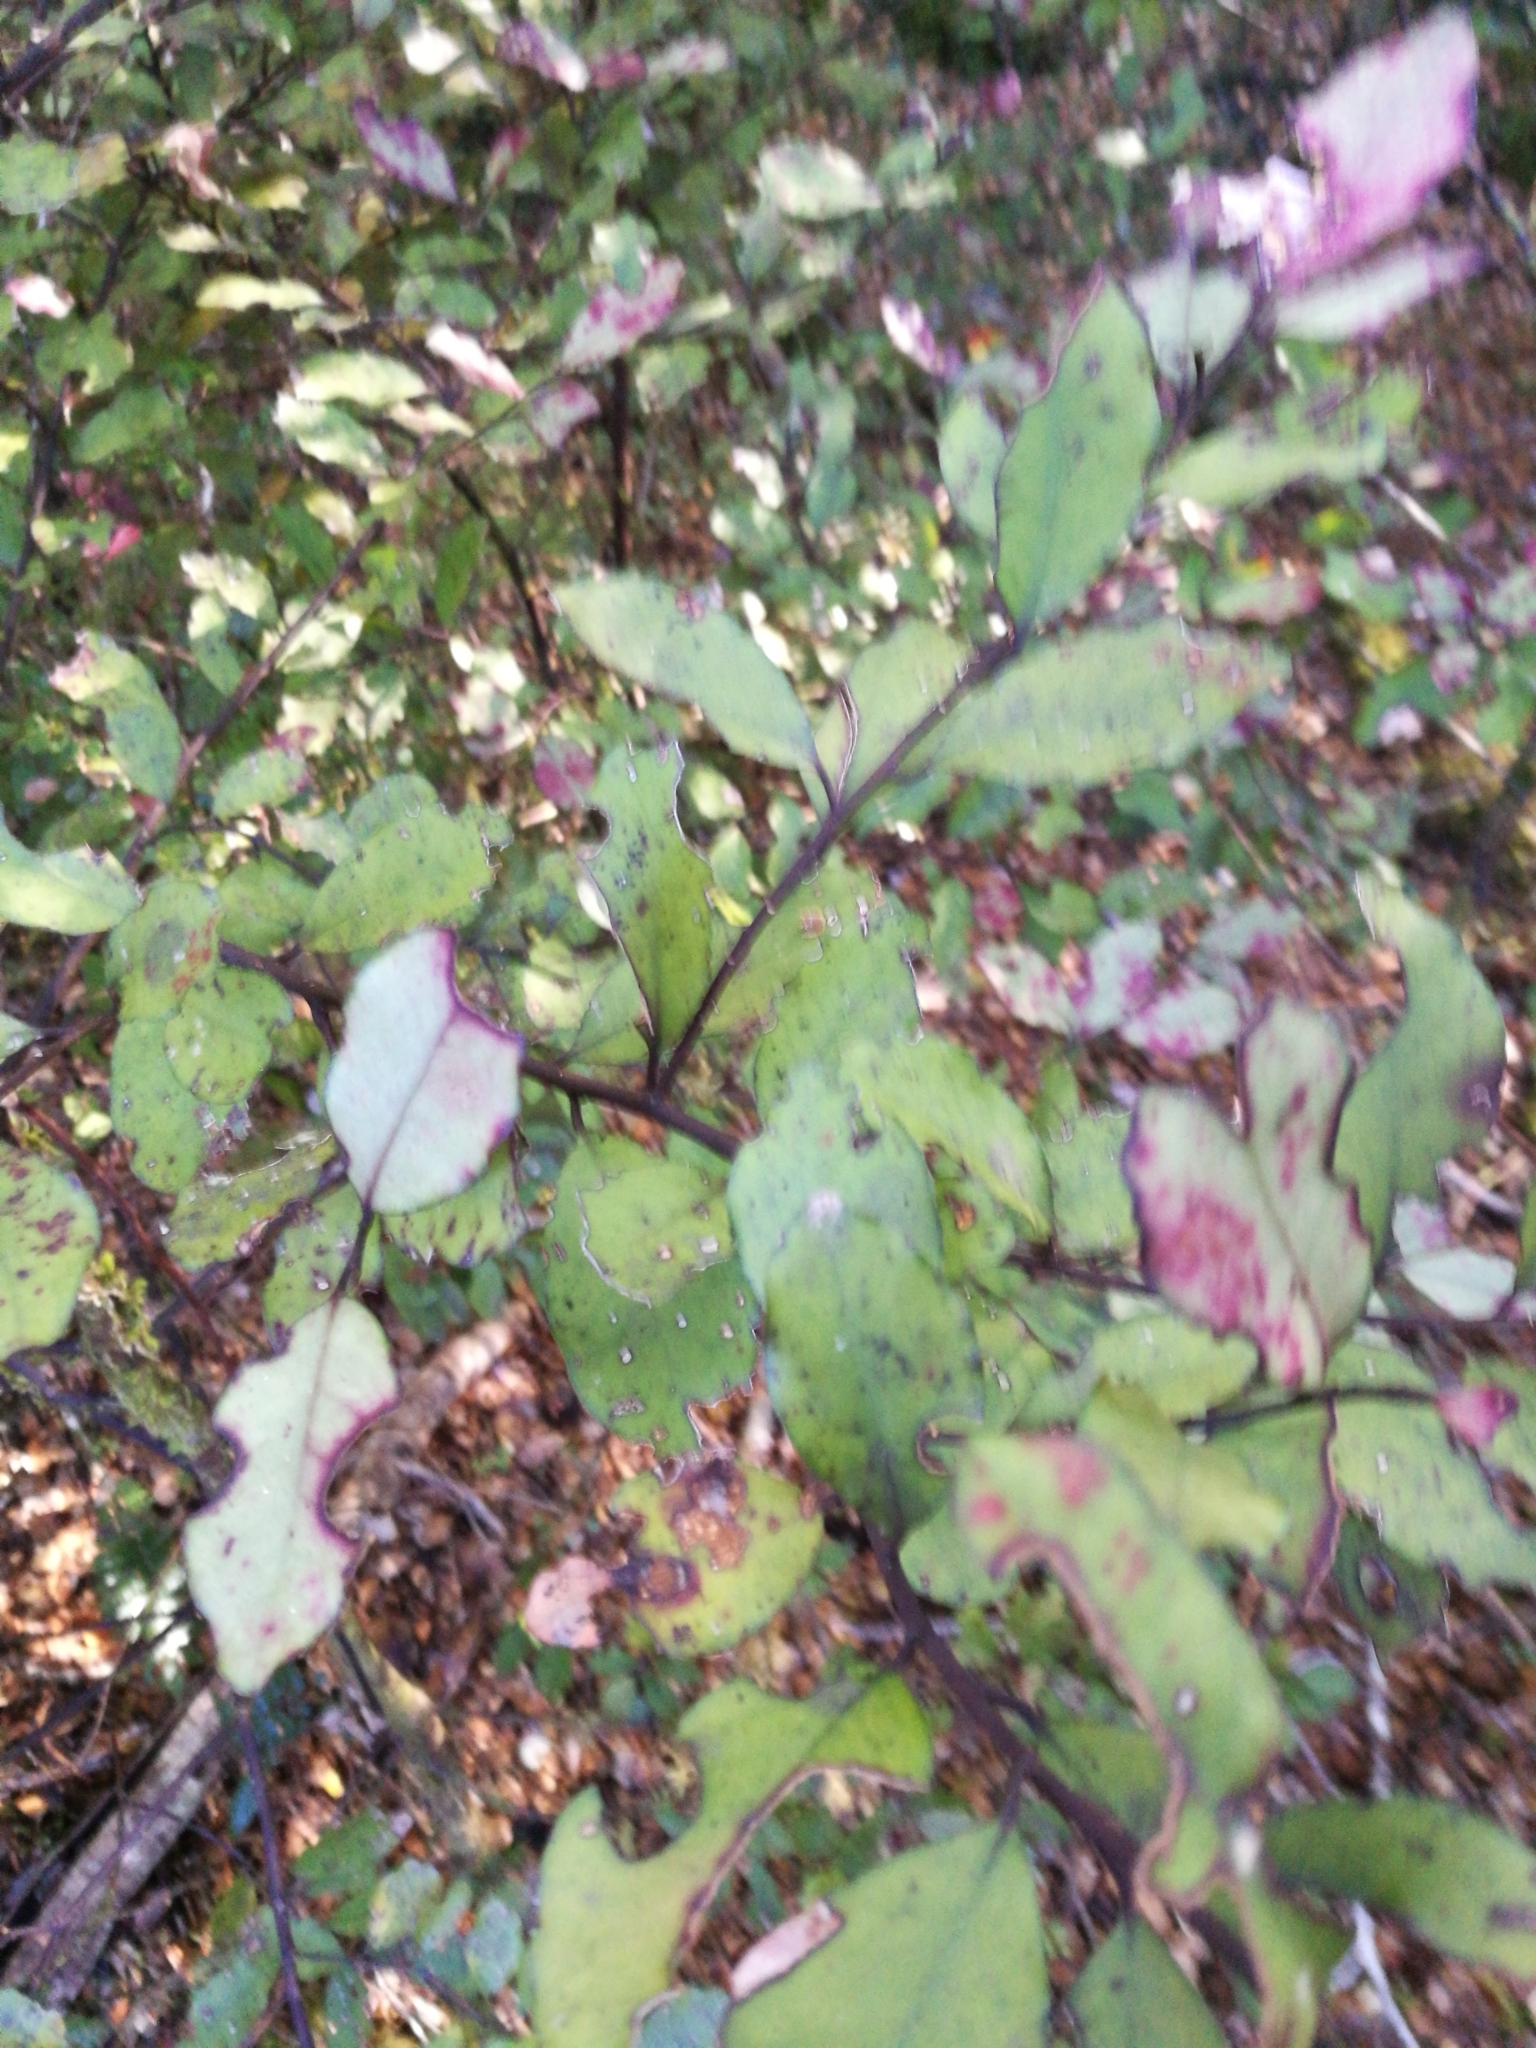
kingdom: Plantae
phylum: Tracheophyta
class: Magnoliopsida
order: Canellales
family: Winteraceae
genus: Pseudowintera
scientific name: Pseudowintera colorata
